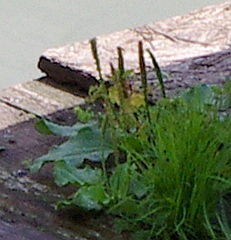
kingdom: Plantae
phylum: Tracheophyta
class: Magnoliopsida
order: Lamiales
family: Plantaginaceae
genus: Plantago
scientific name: Plantago major
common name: Common plantain
